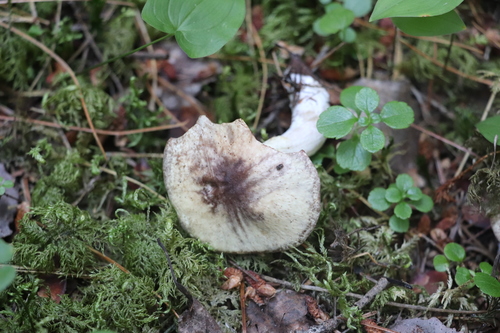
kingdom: Fungi
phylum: Basidiomycota
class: Agaricomycetes
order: Boletales
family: Suillaceae
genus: Suillus
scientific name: Suillus placidus
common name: Slippery white bolete
